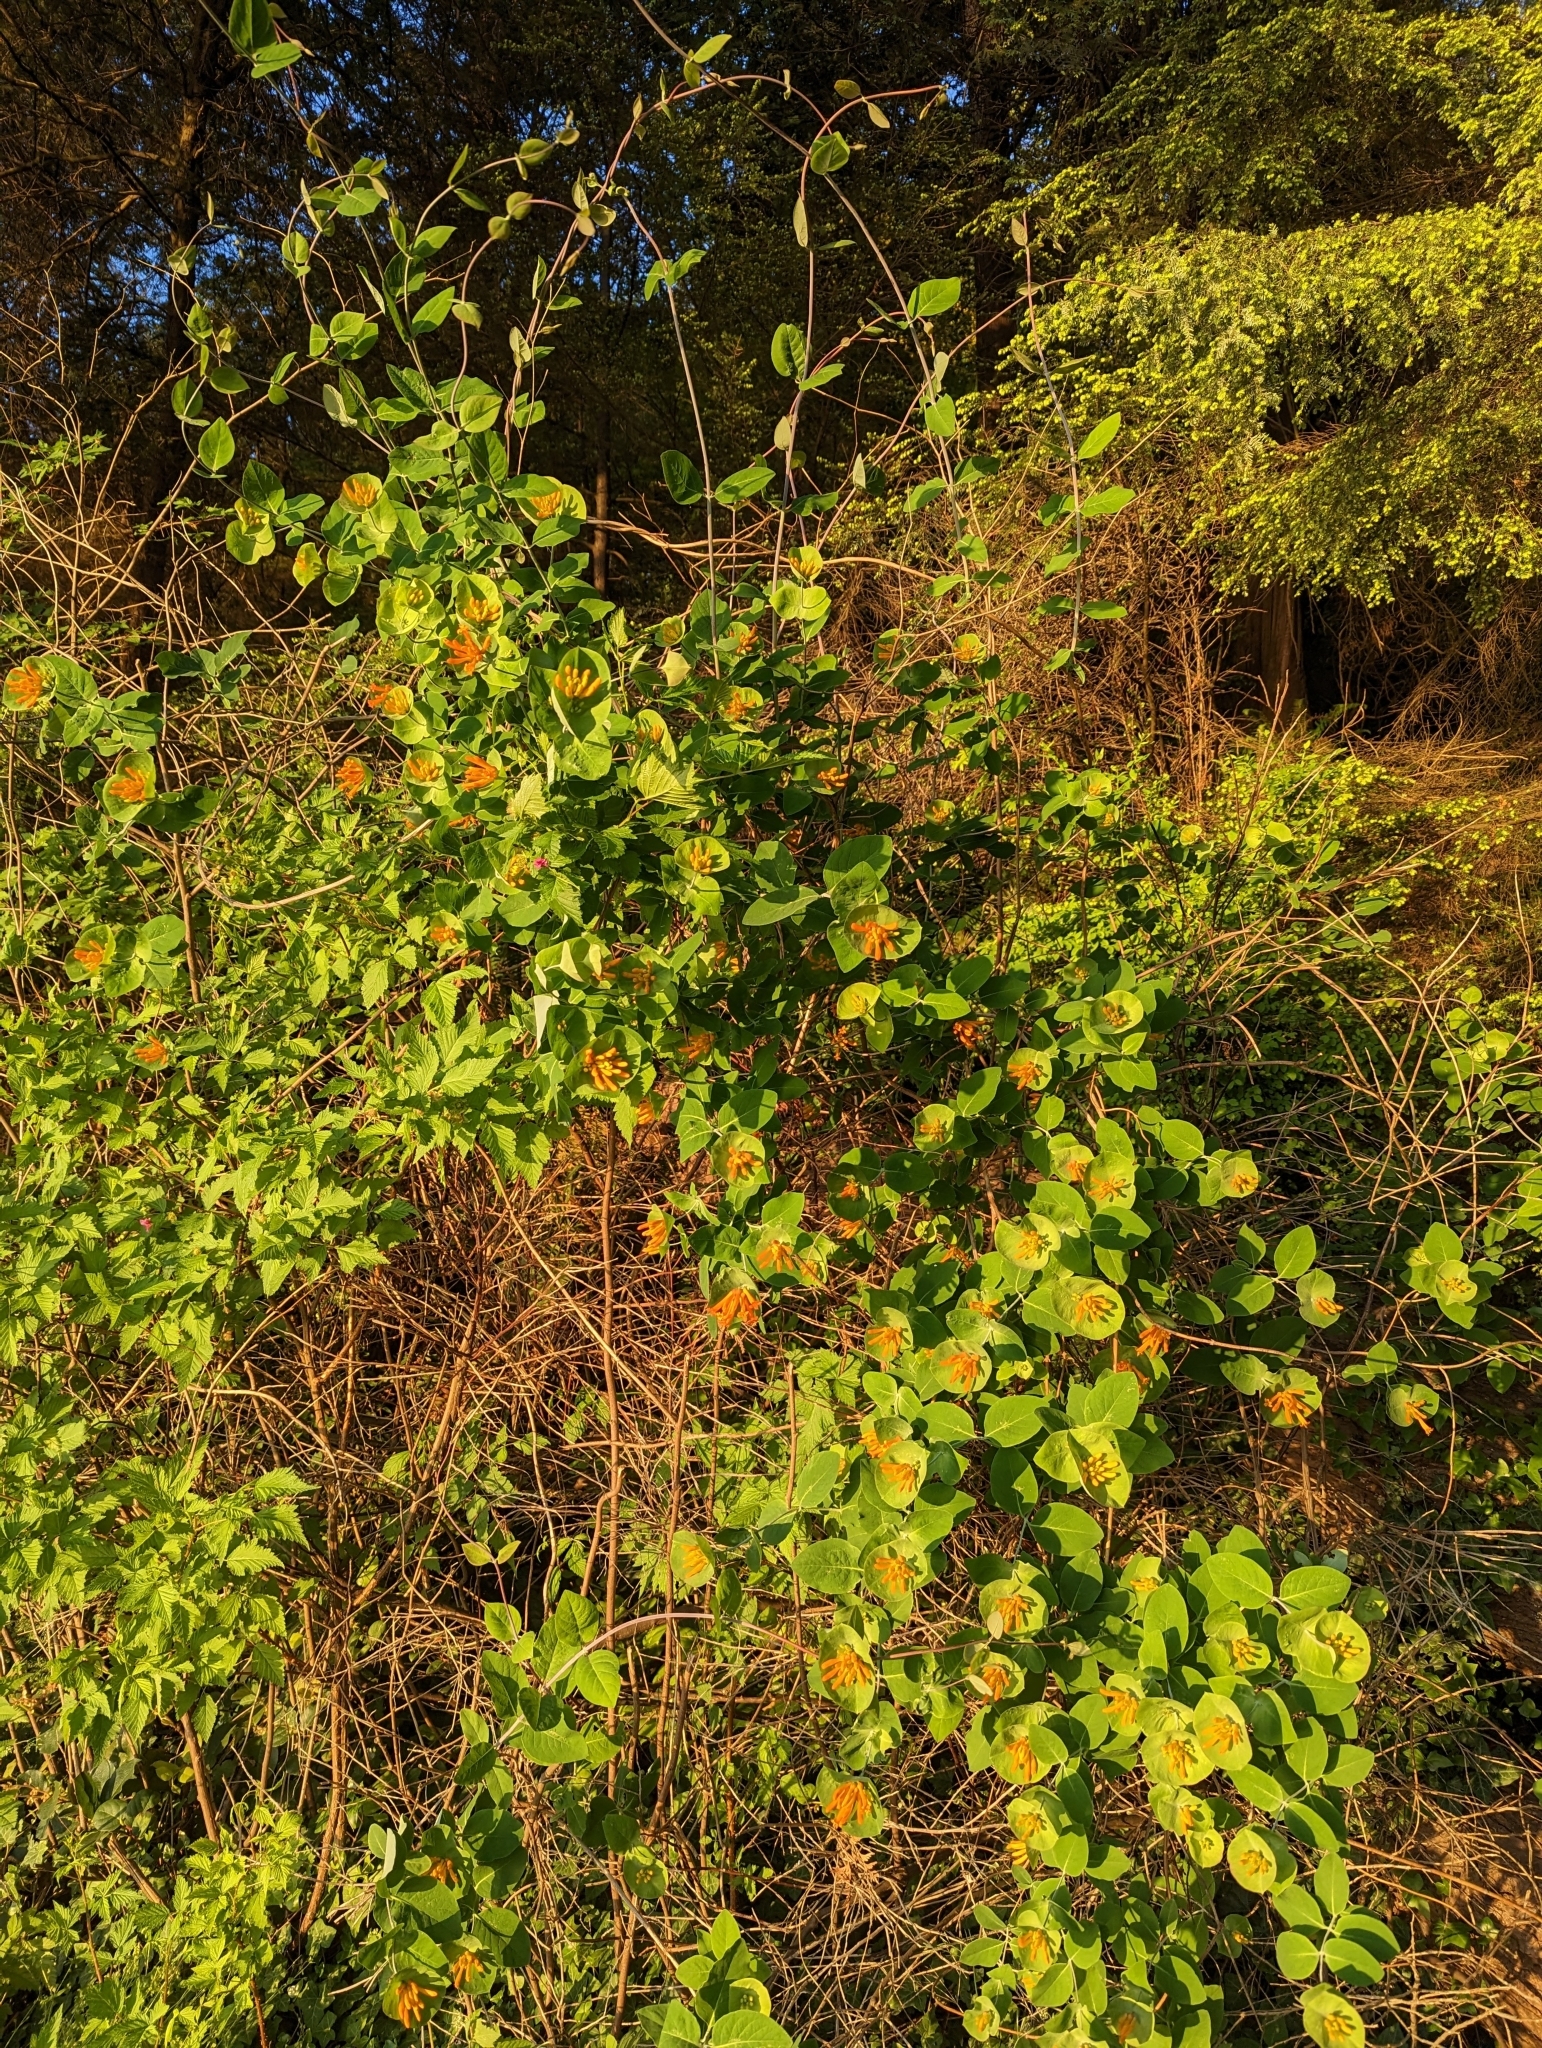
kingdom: Plantae
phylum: Tracheophyta
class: Magnoliopsida
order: Dipsacales
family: Caprifoliaceae
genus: Lonicera
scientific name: Lonicera ciliosa
